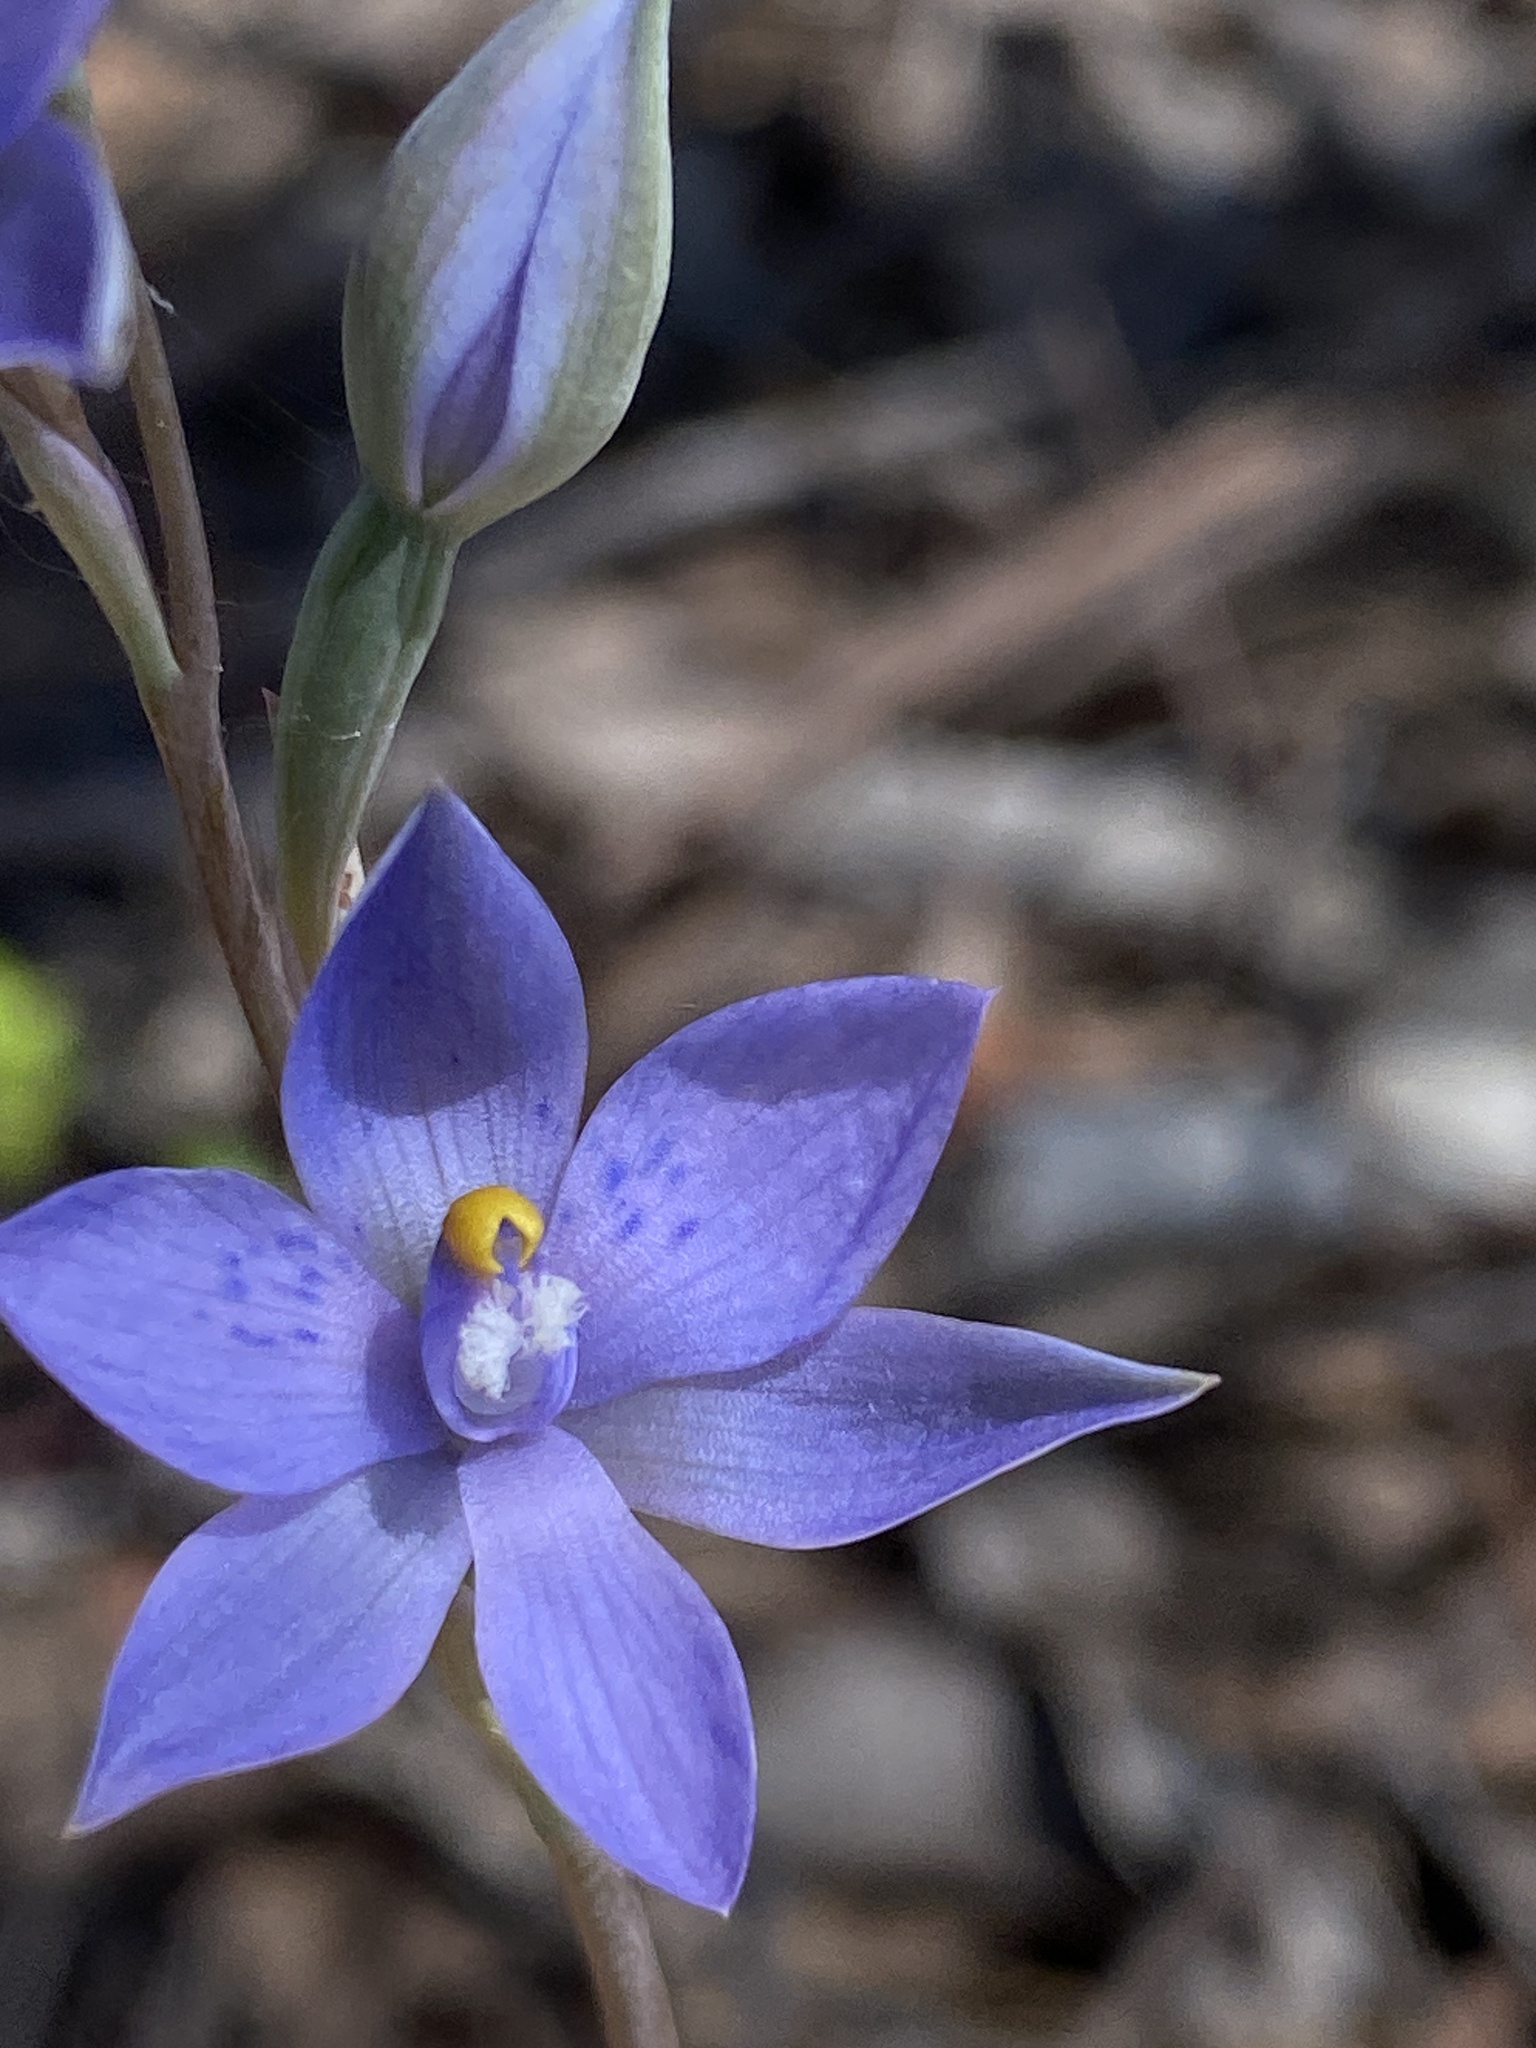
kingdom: Plantae
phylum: Tracheophyta
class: Liliopsida
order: Asparagales
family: Orchidaceae
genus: Thelymitra
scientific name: Thelymitra truncata
